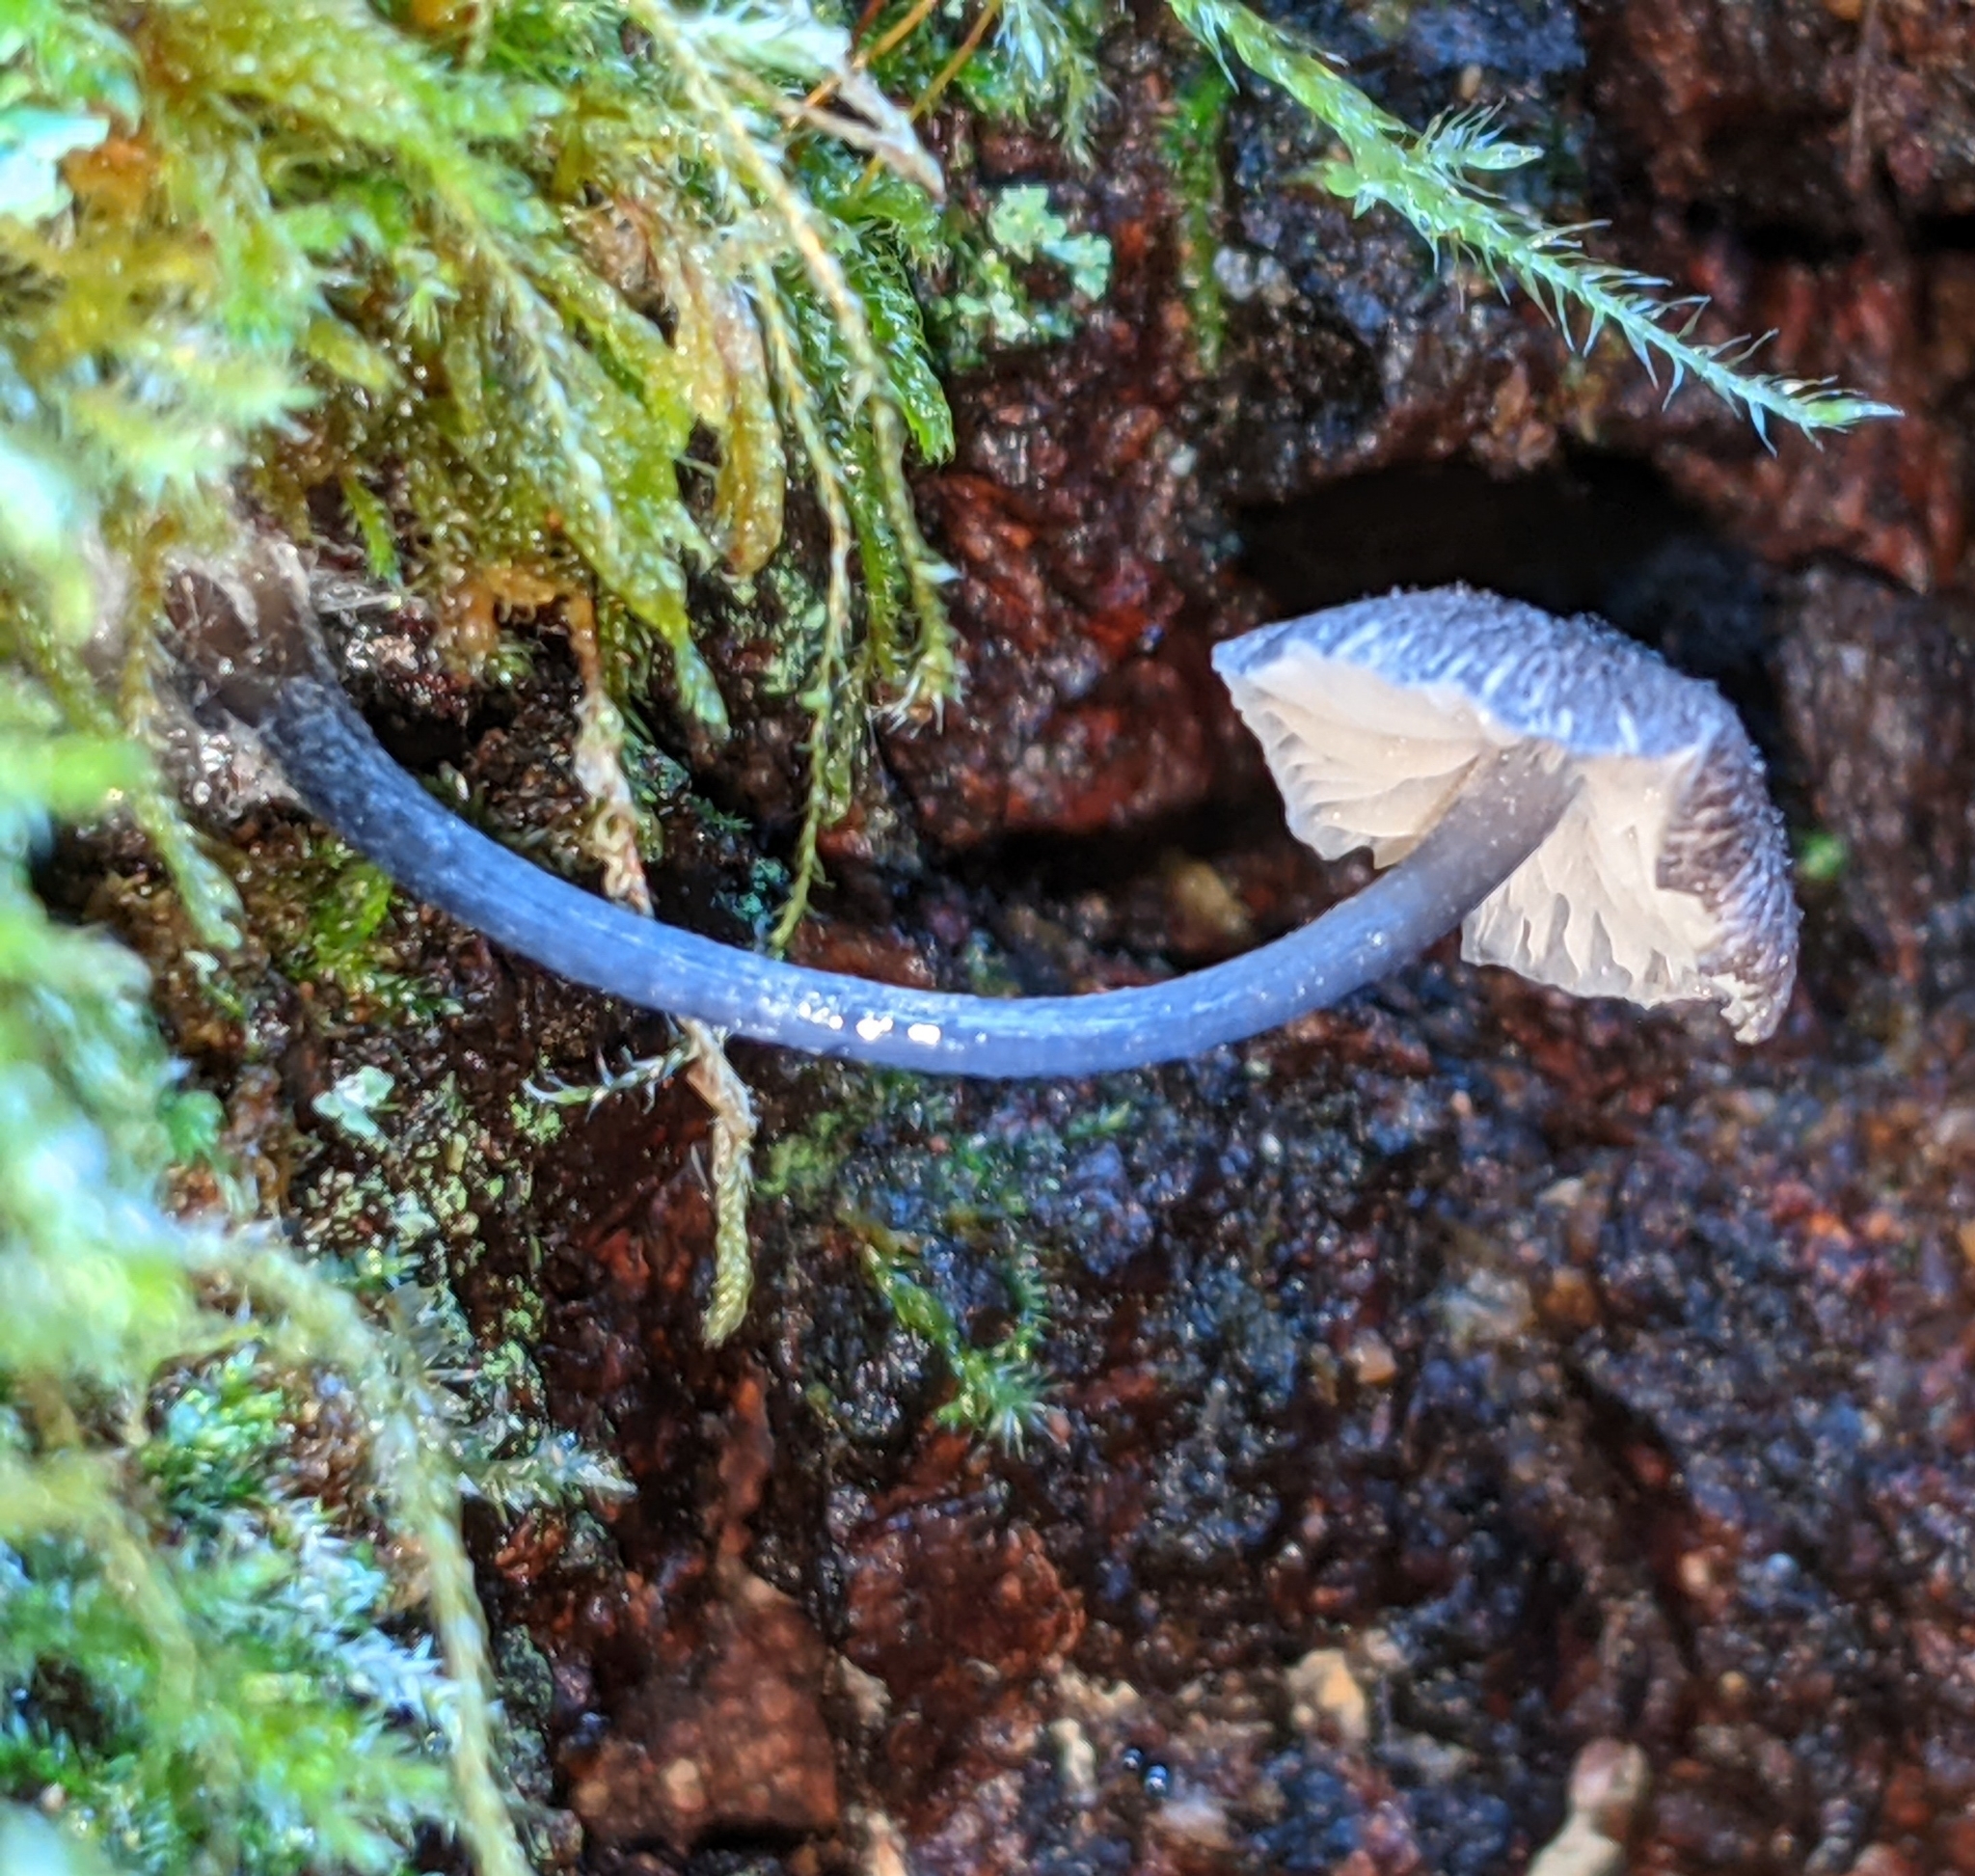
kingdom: Fungi
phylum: Basidiomycota
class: Agaricomycetes
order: Agaricales
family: Entolomataceae
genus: Entoloma
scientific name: Entoloma largentii
